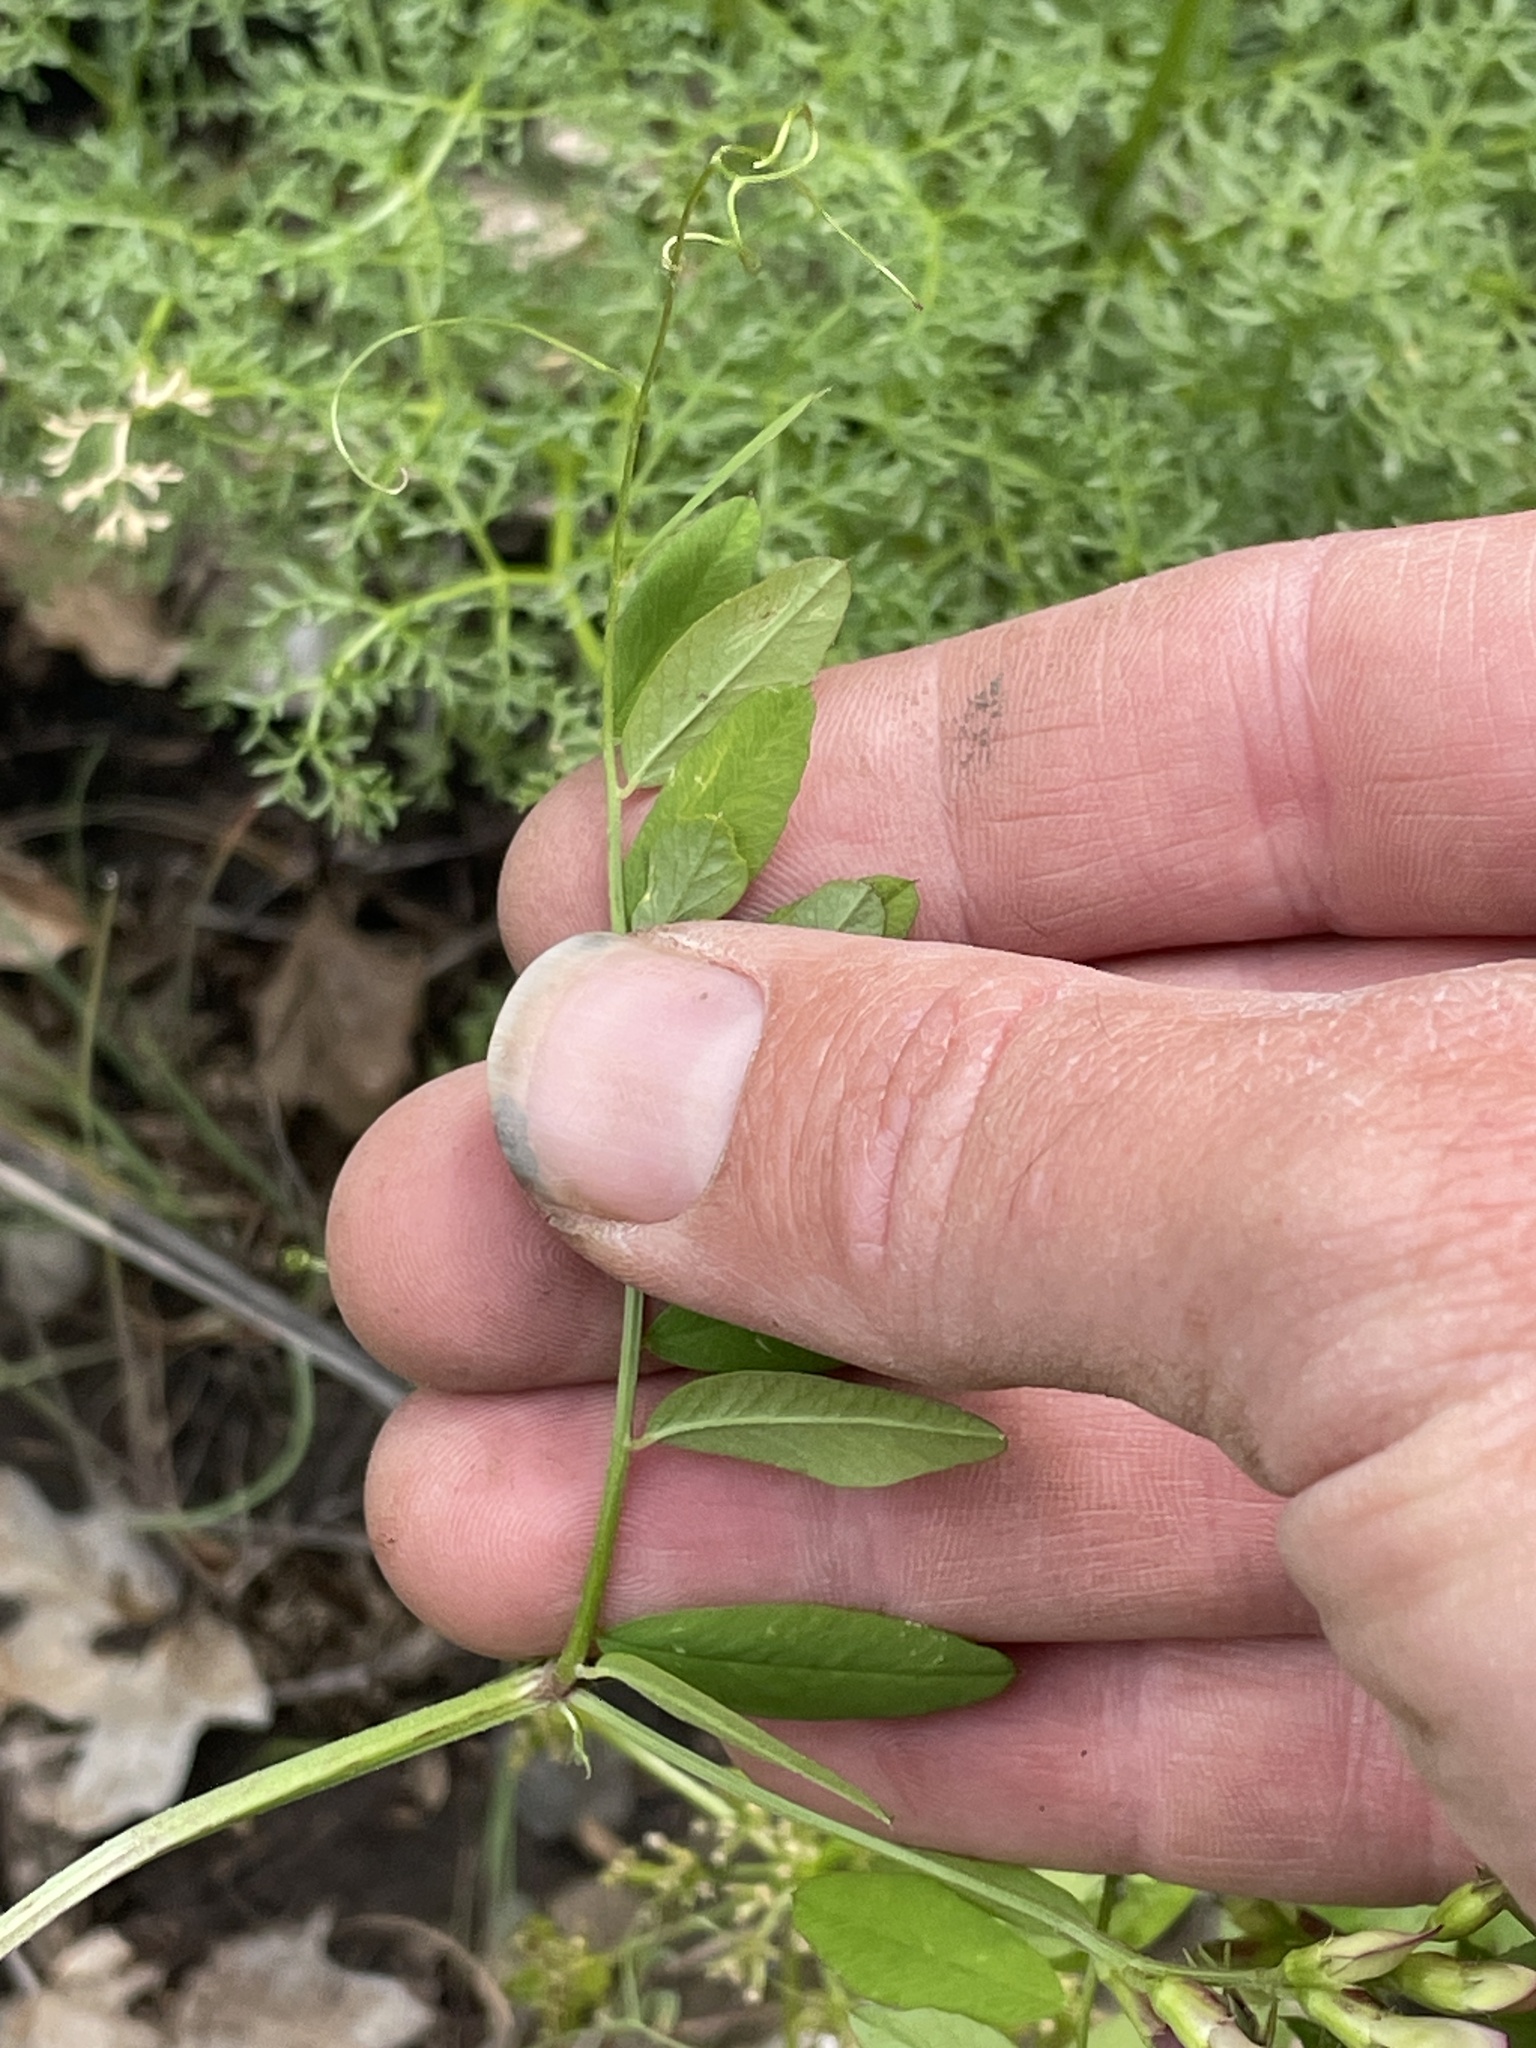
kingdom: Plantae
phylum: Tracheophyta
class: Magnoliopsida
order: Fabales
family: Fabaceae
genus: Vicia
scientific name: Vicia americana
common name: American vetch
